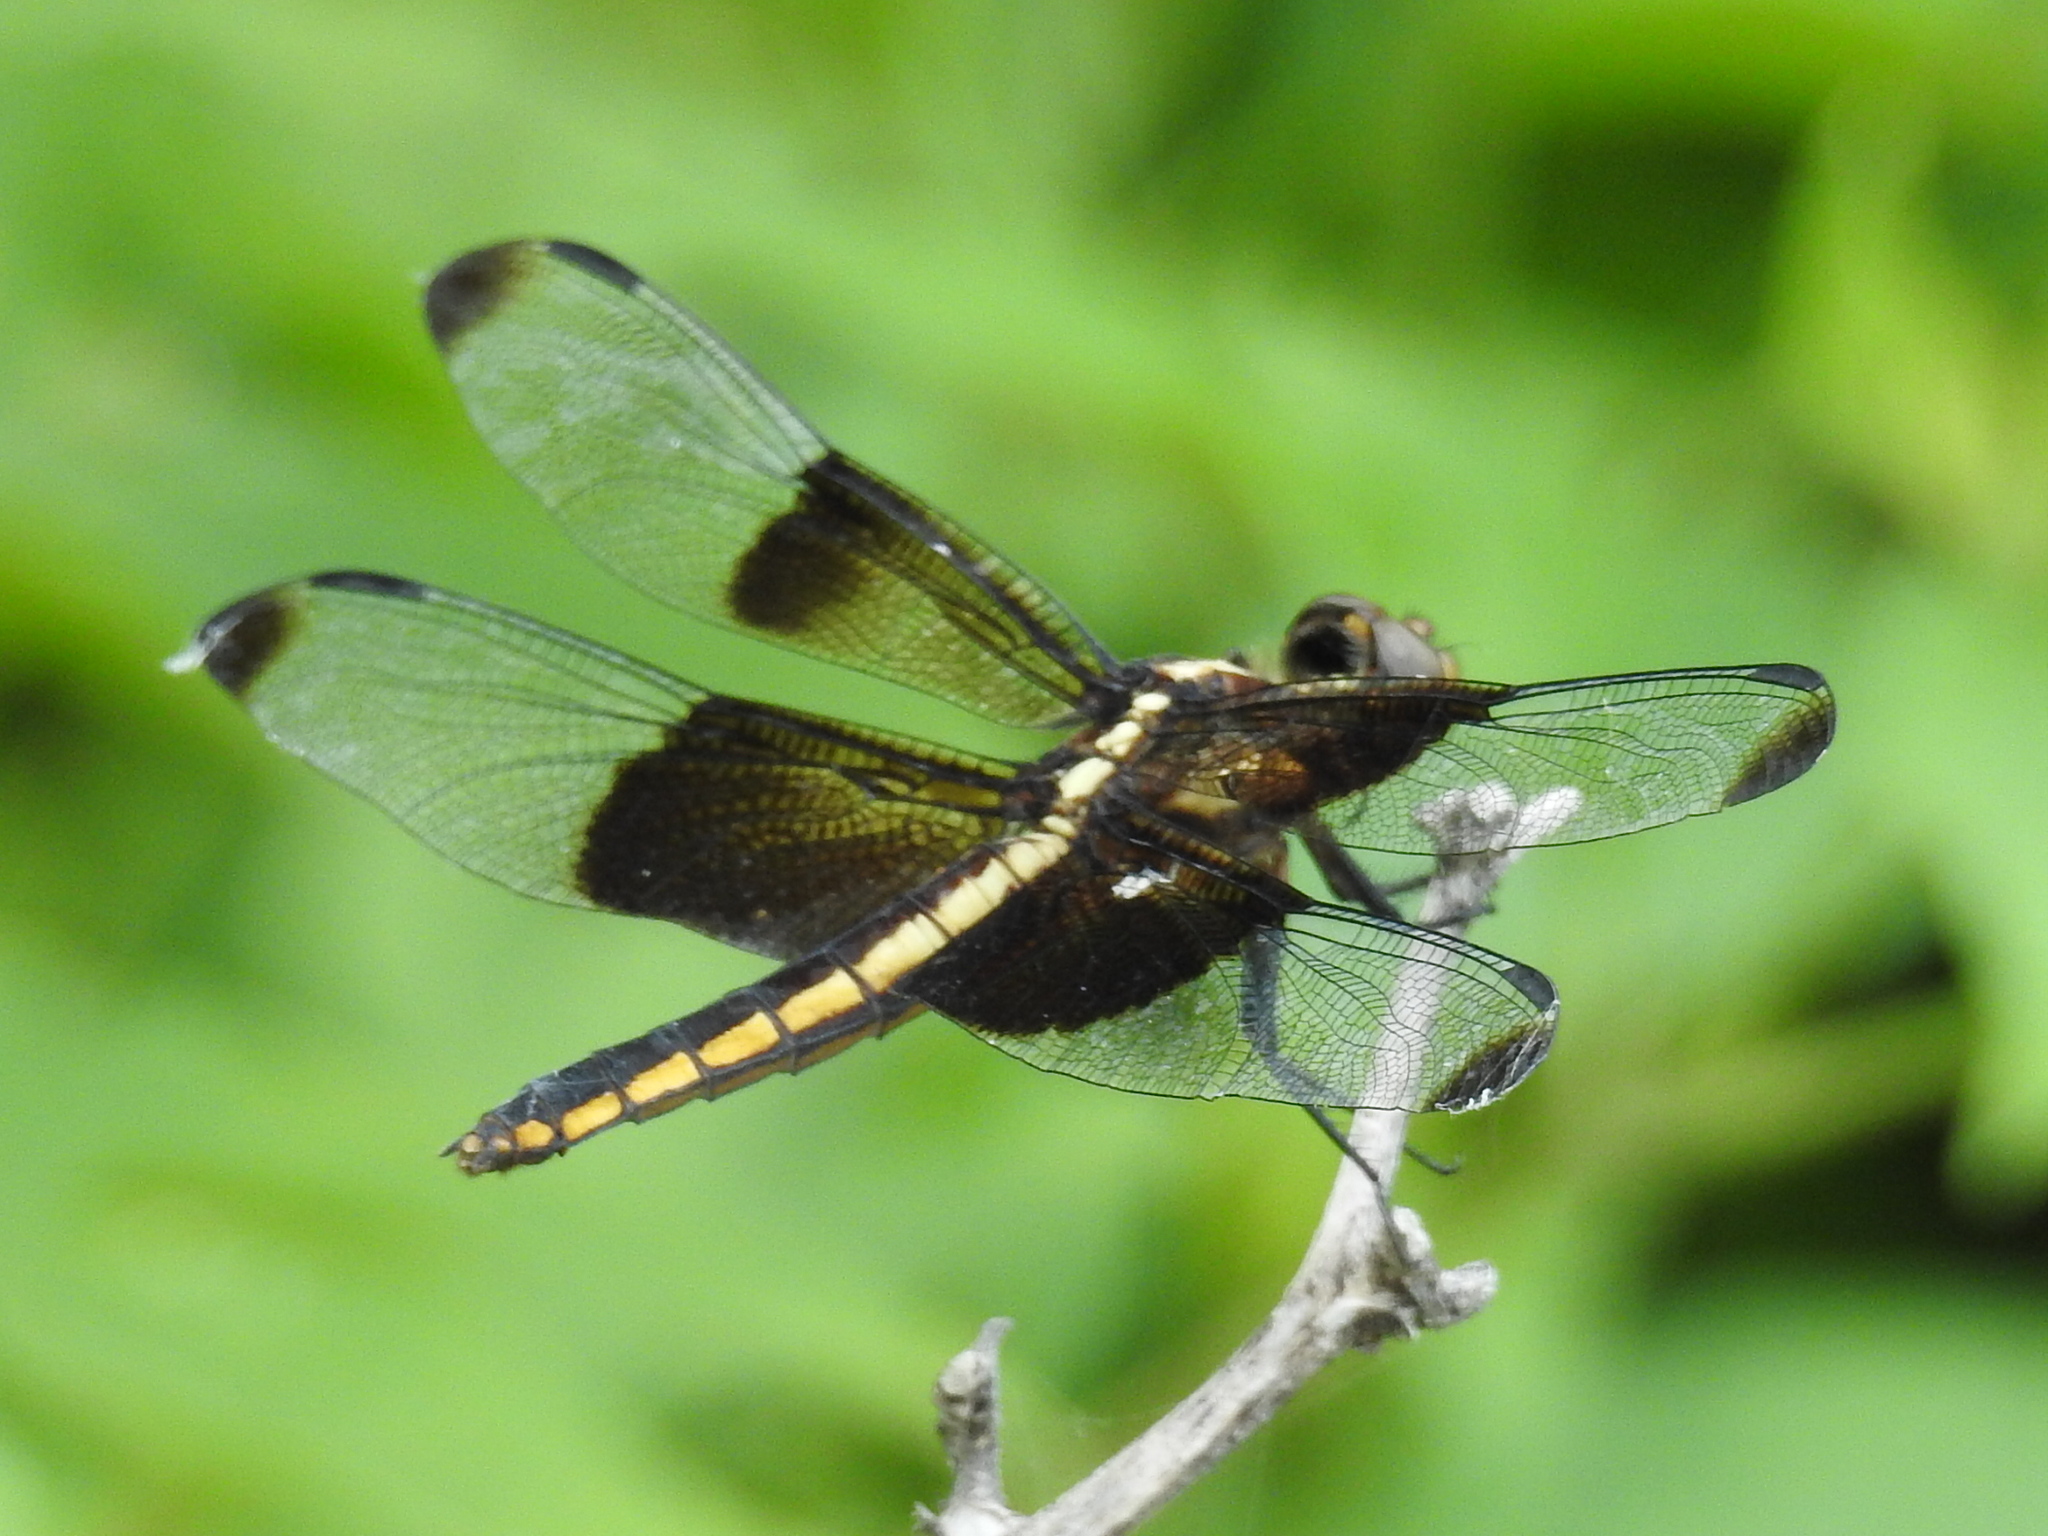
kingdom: Animalia
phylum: Arthropoda
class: Insecta
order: Odonata
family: Libellulidae
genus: Libellula
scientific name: Libellula luctuosa
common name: Widow skimmer
